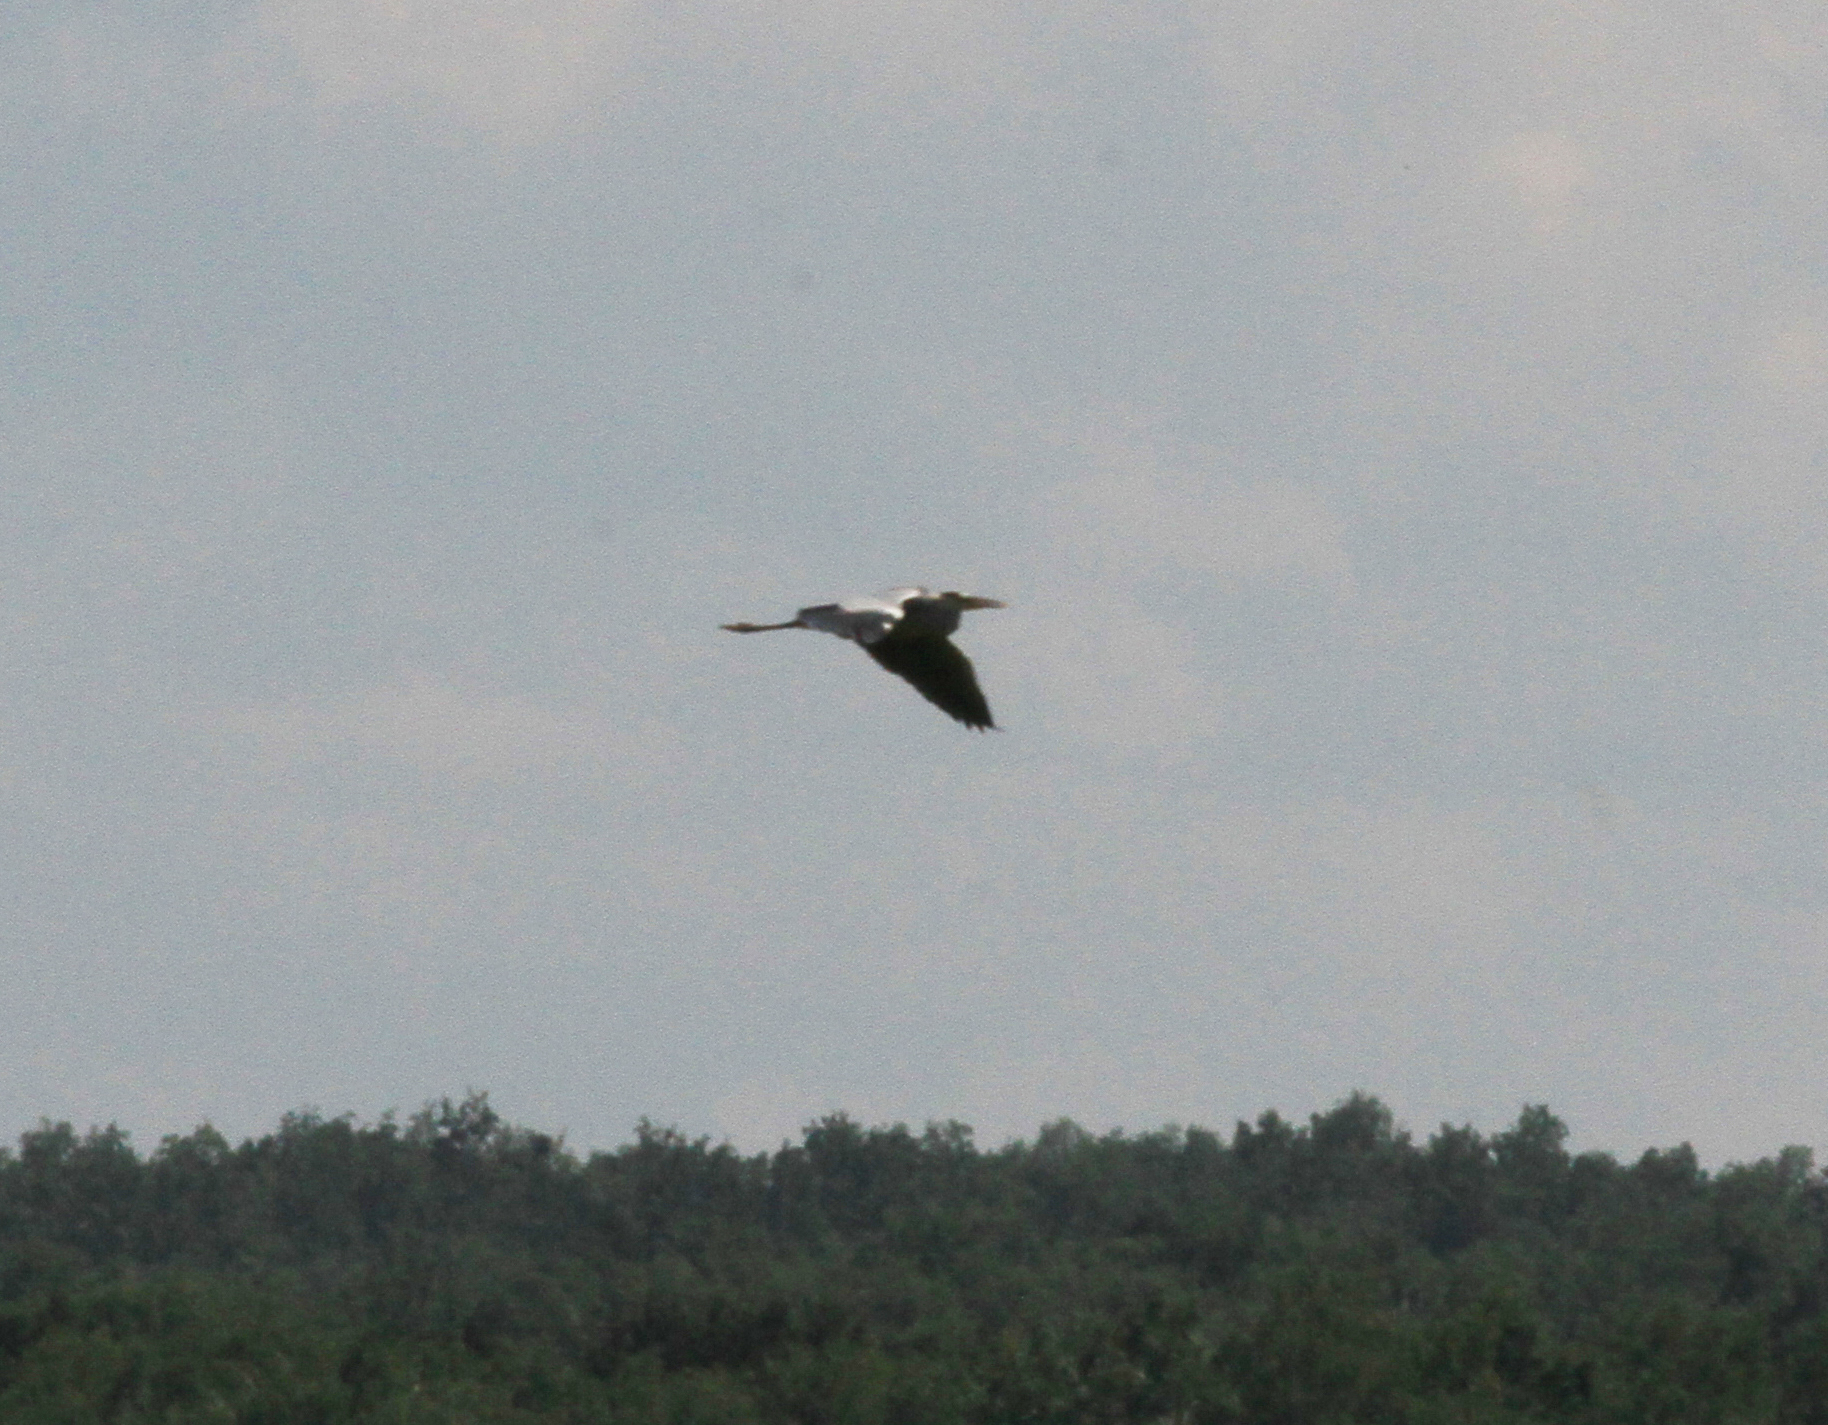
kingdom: Animalia
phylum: Chordata
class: Aves
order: Pelecaniformes
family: Ardeidae
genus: Ardea
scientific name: Ardea cinerea
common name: Grey heron
